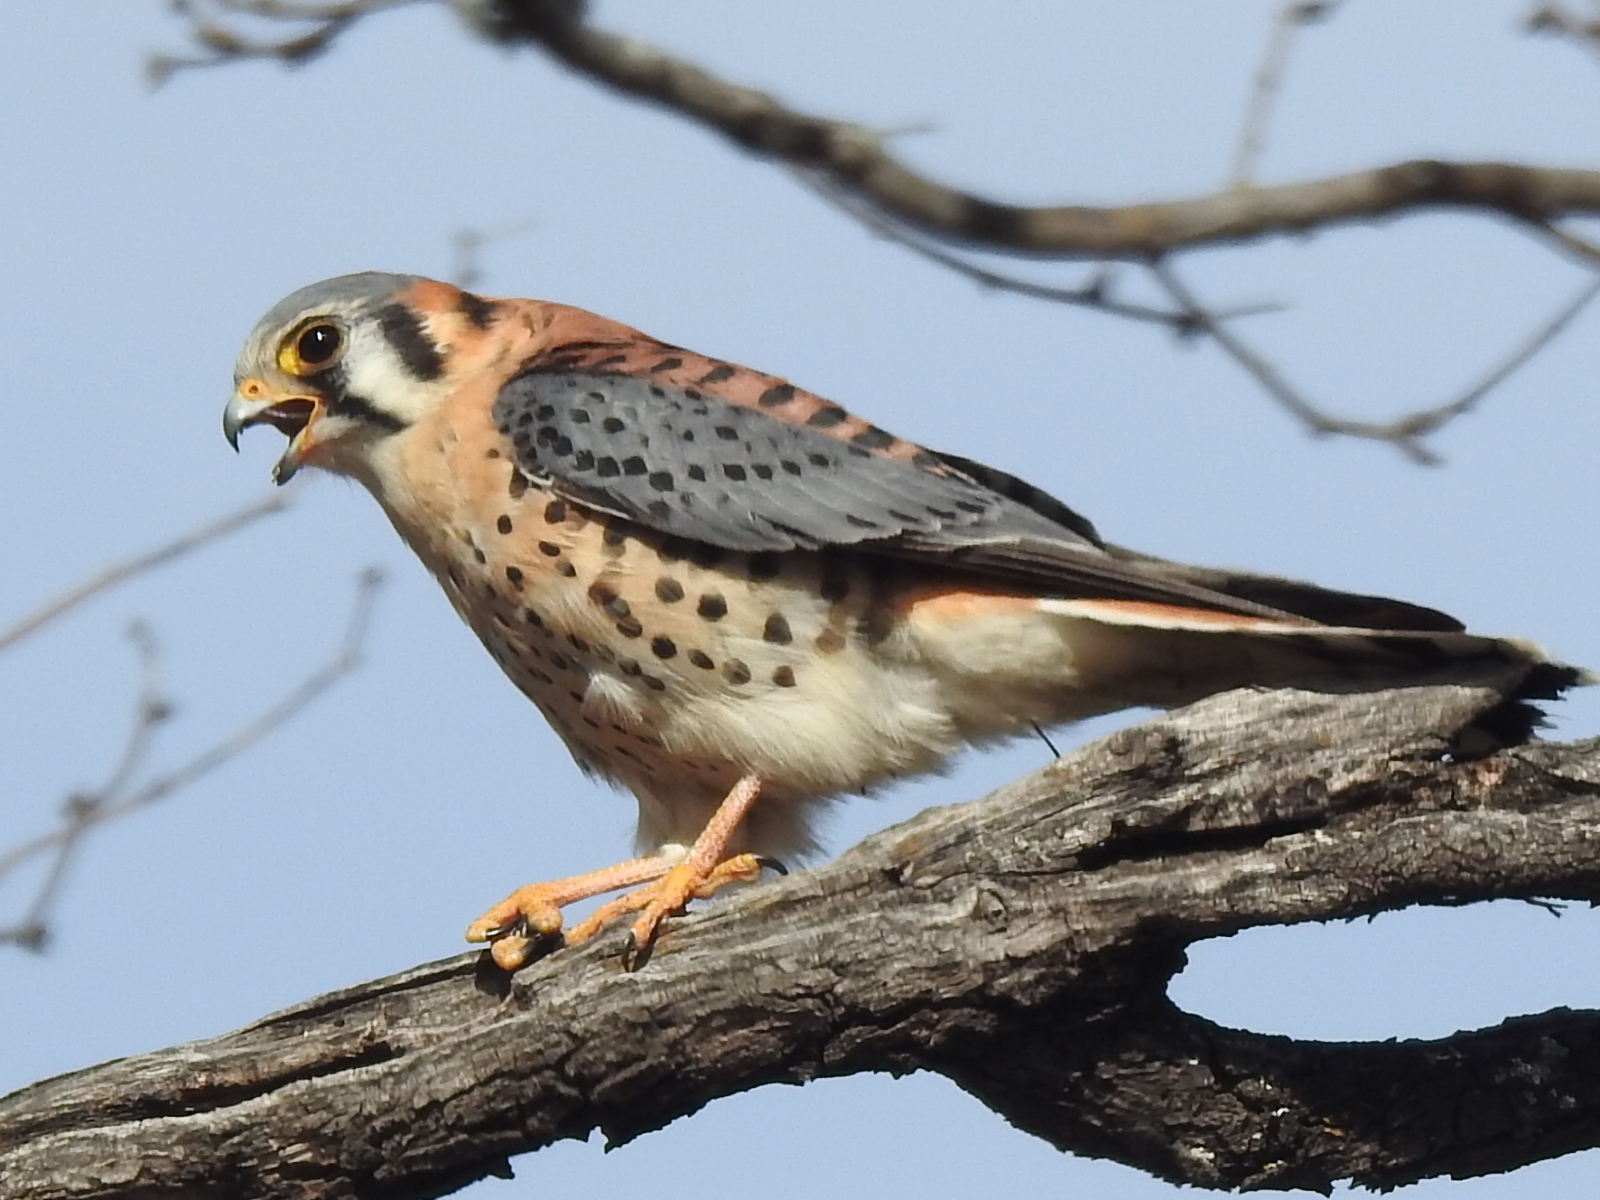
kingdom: Animalia
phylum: Chordata
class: Aves
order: Falconiformes
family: Falconidae
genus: Falco
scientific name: Falco sparverius
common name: American kestrel
